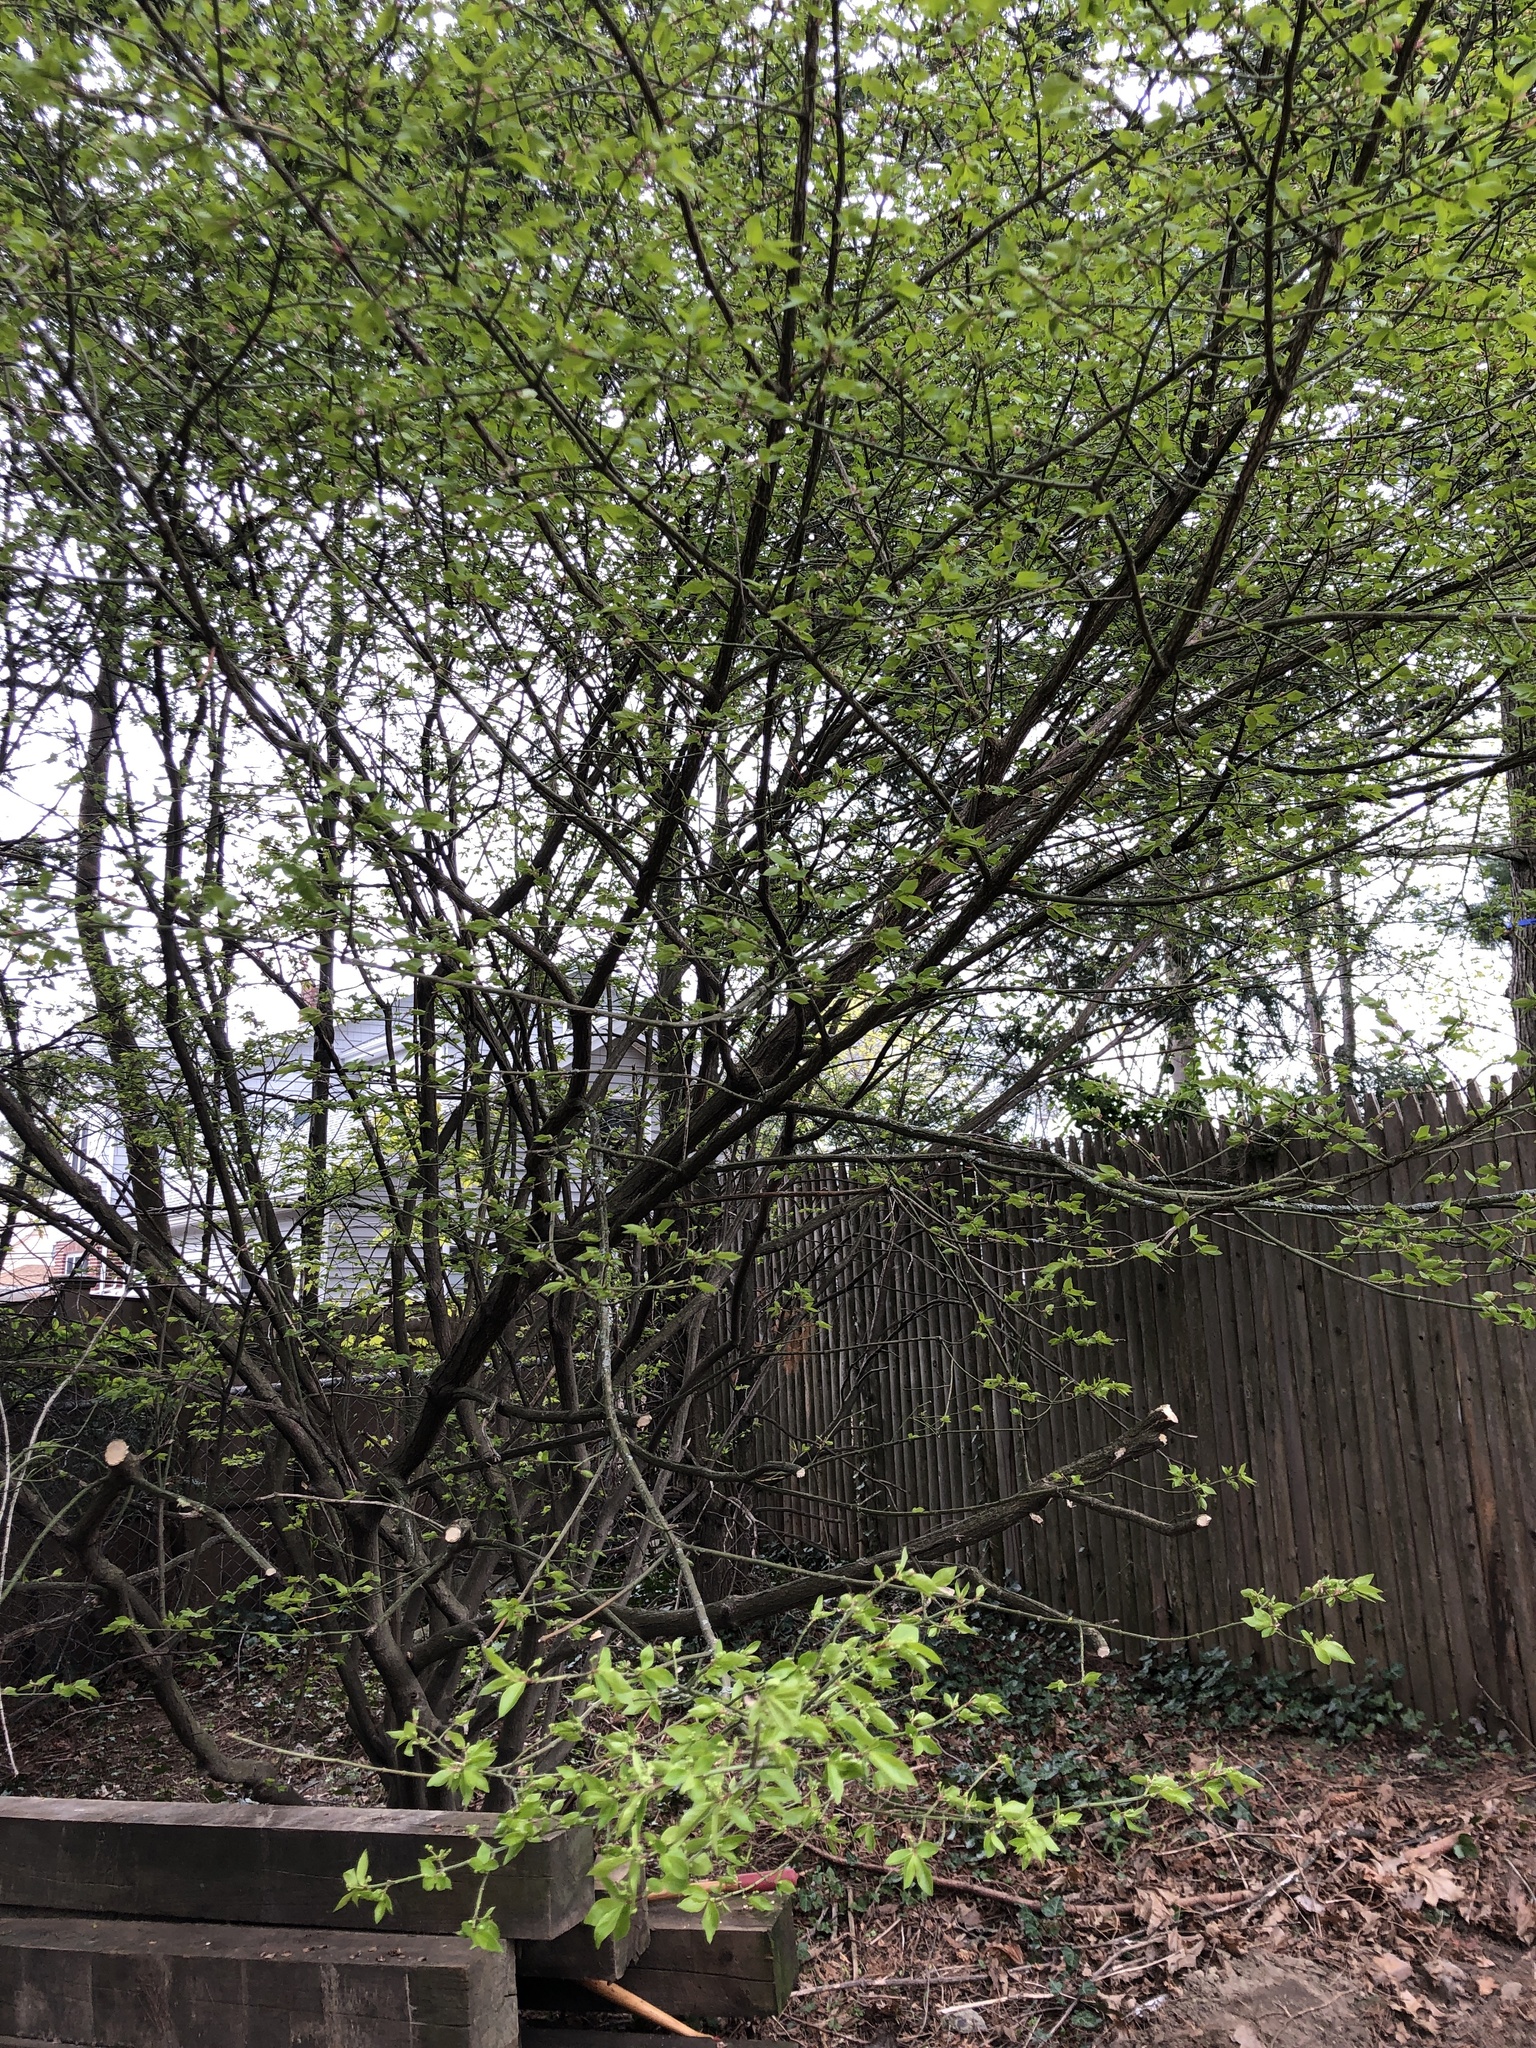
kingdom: Plantae
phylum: Tracheophyta
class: Magnoliopsida
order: Celastrales
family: Celastraceae
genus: Euonymus
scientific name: Euonymus alatus
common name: Winged euonymus
